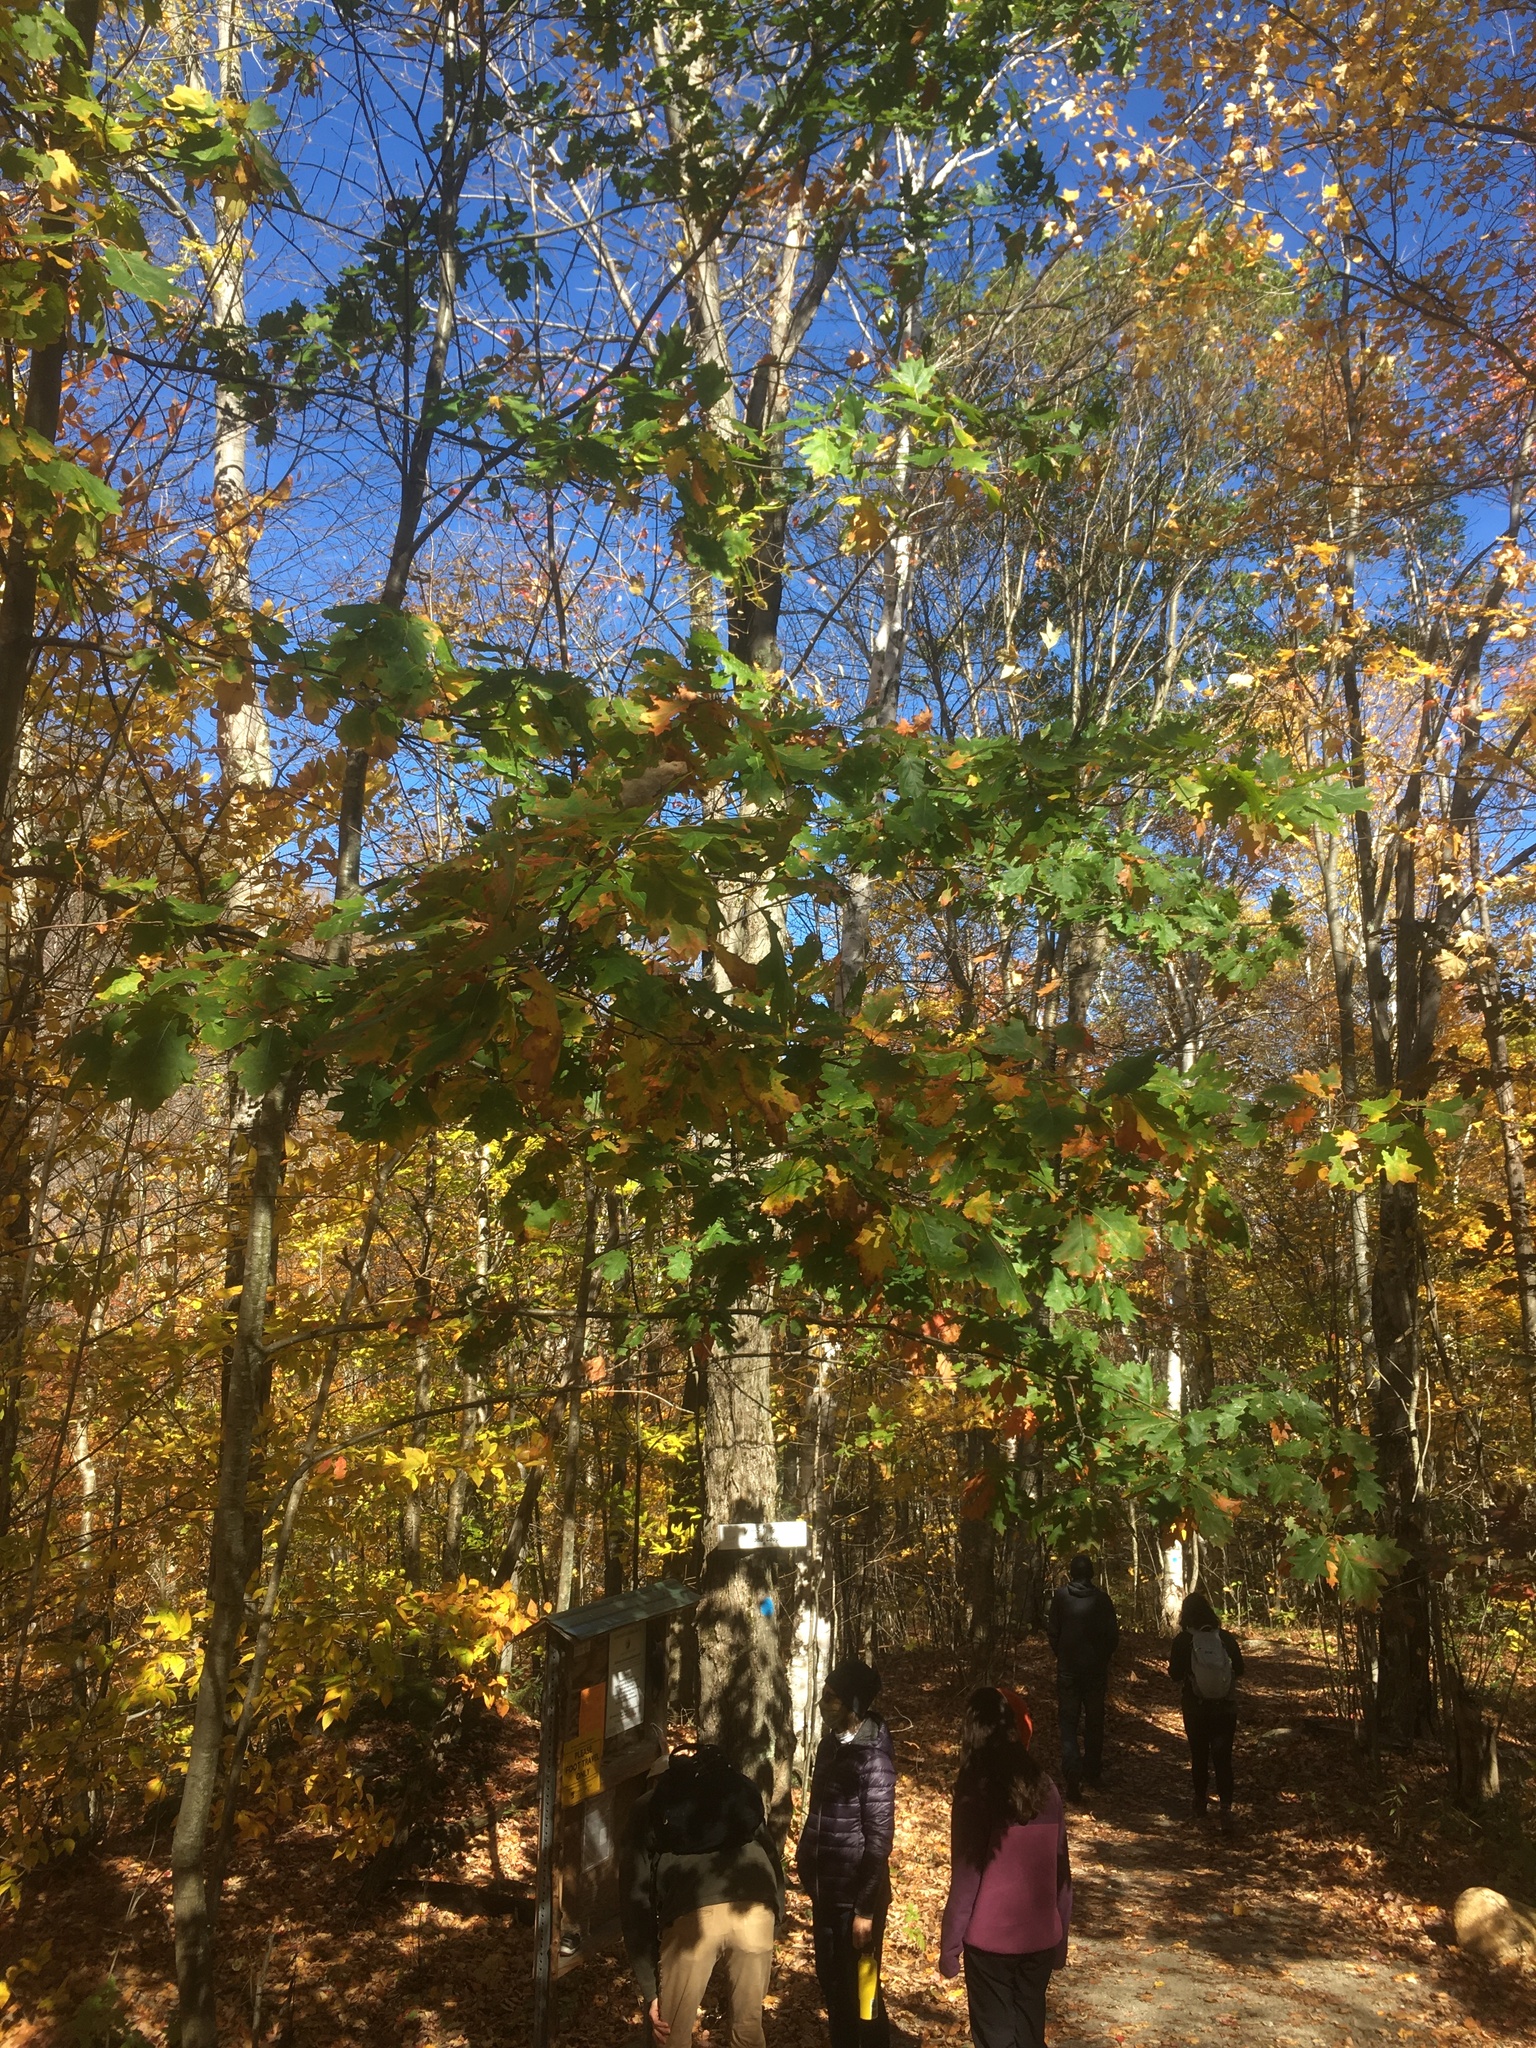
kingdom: Plantae
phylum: Tracheophyta
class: Magnoliopsida
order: Fagales
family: Fagaceae
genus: Quercus
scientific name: Quercus rubra
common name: Red oak
